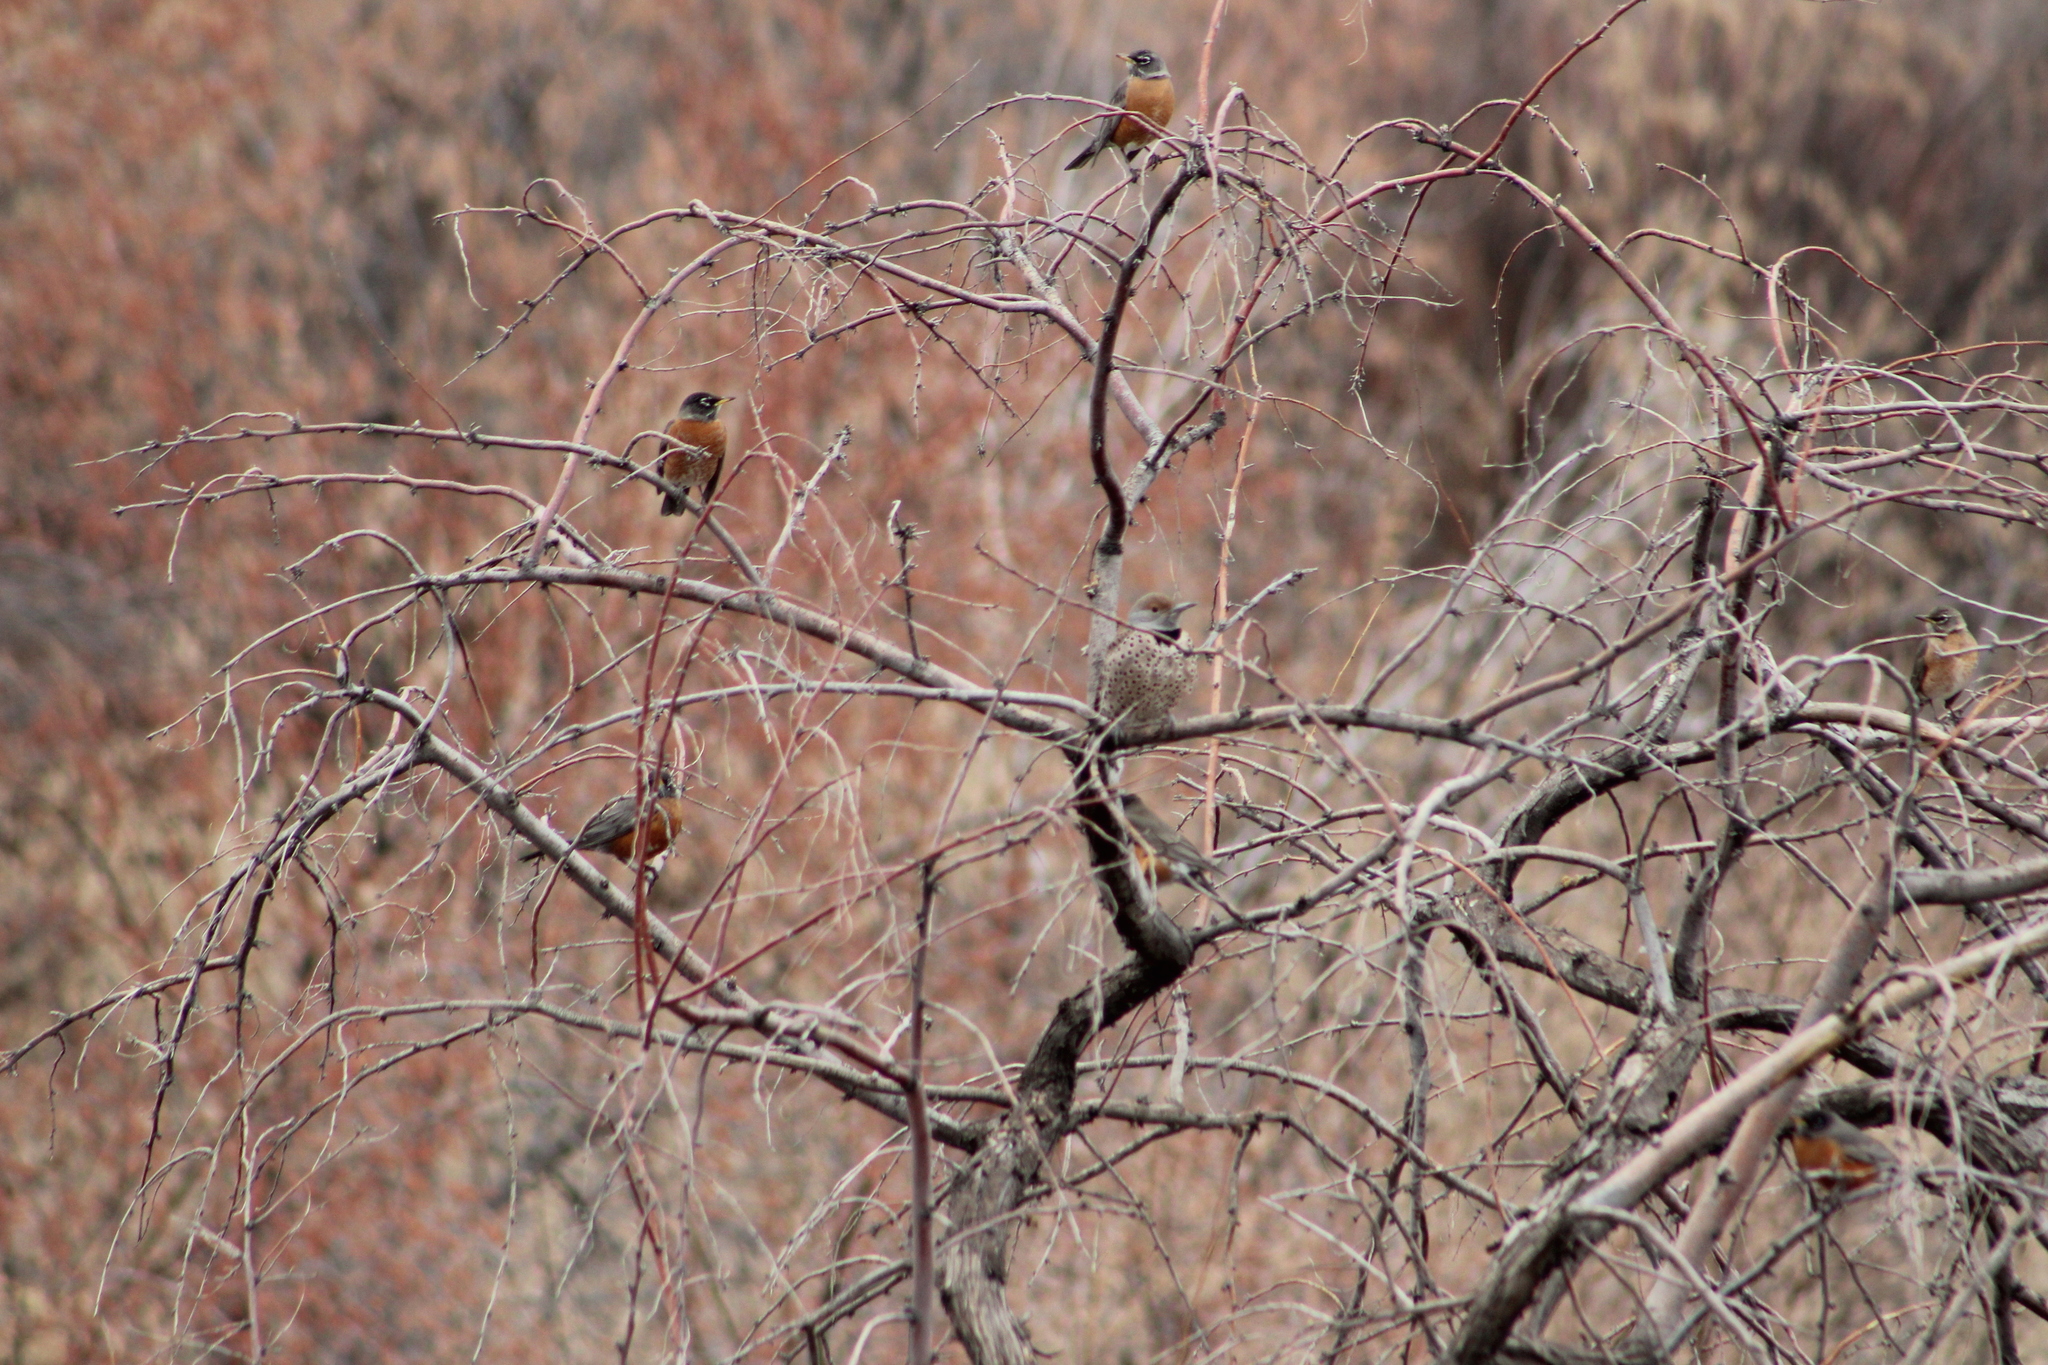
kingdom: Animalia
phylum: Chordata
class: Aves
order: Piciformes
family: Picidae
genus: Colaptes
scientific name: Colaptes auratus
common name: Northern flicker
